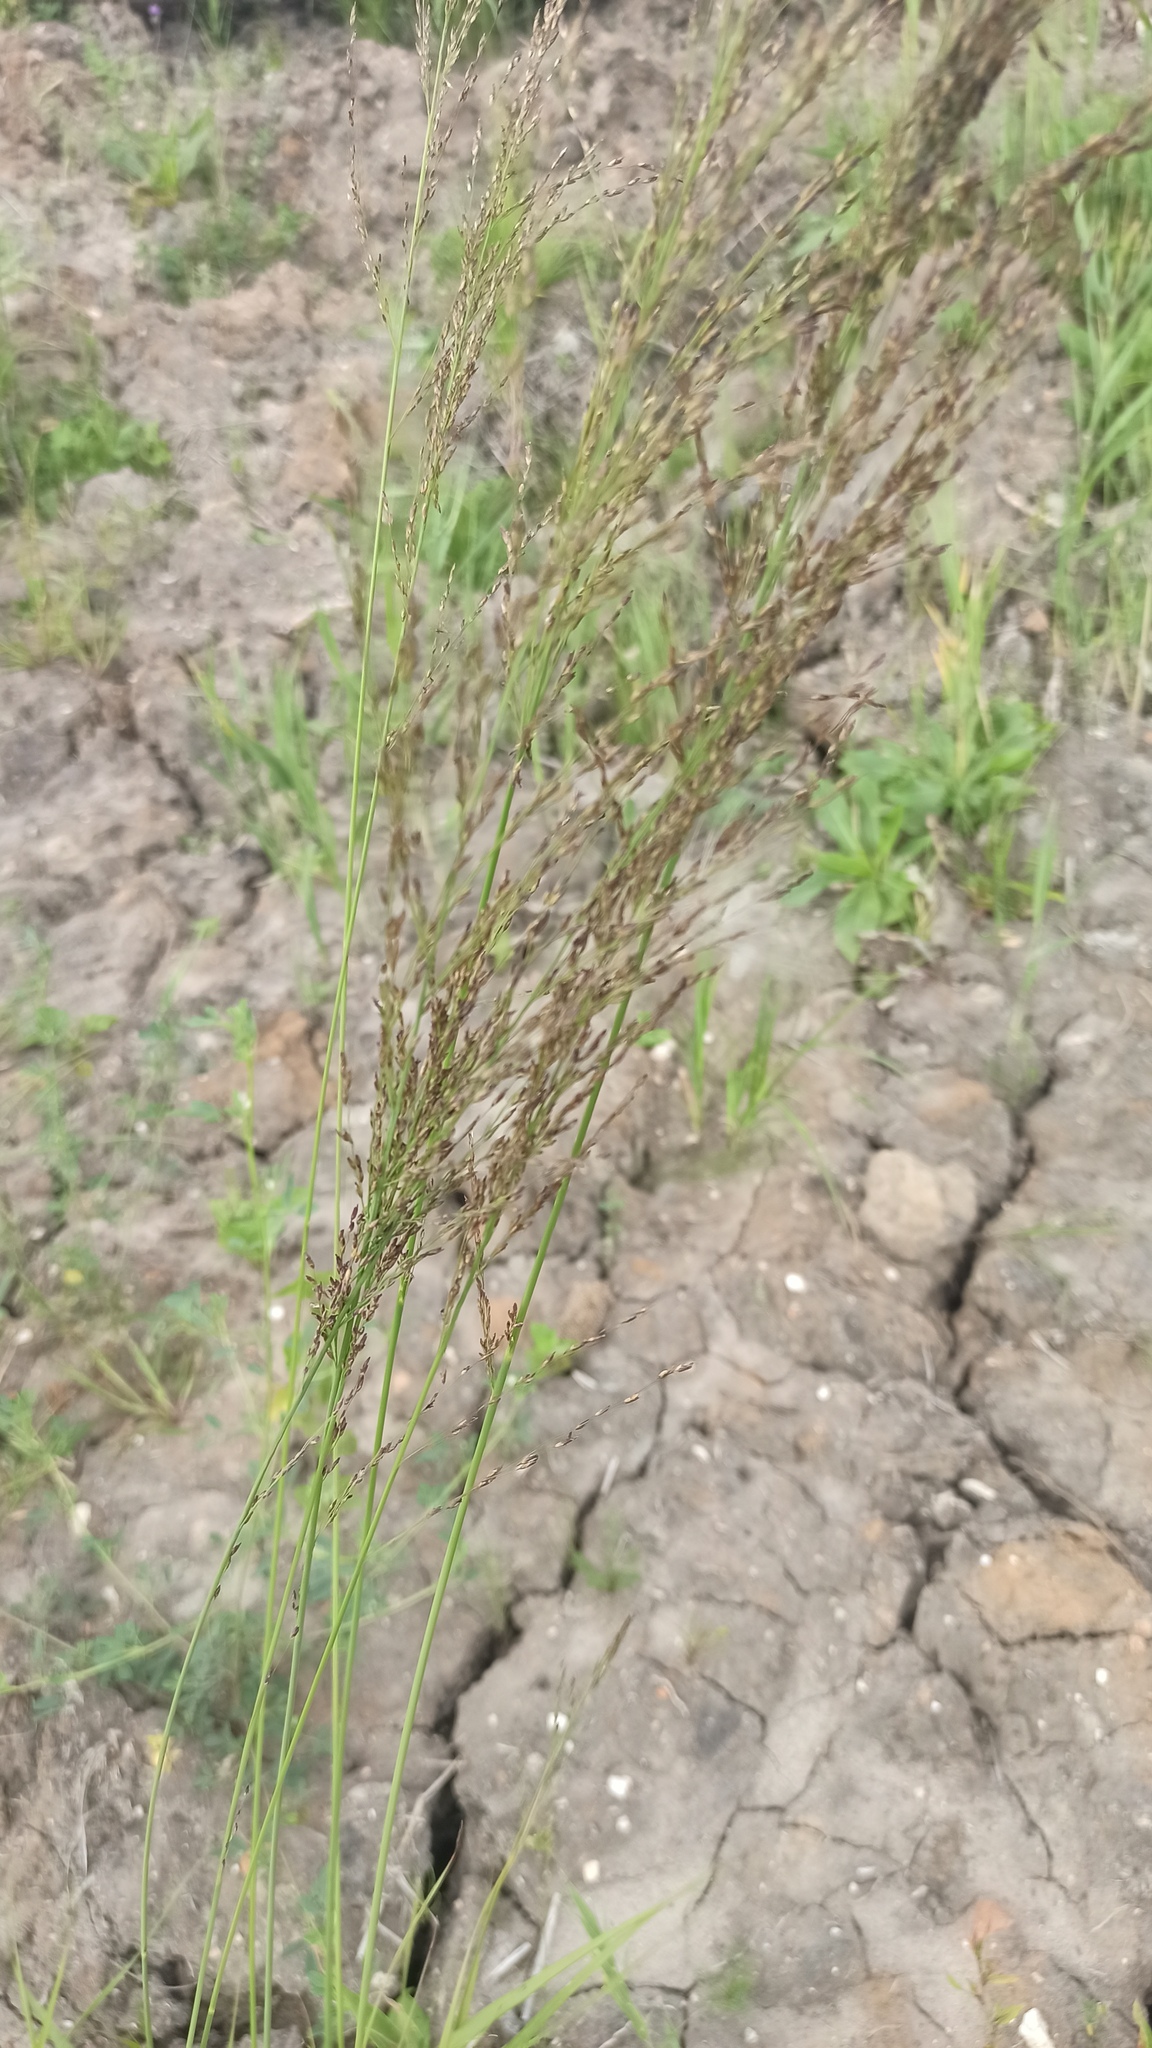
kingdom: Plantae
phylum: Tracheophyta
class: Liliopsida
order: Poales
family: Poaceae
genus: Molinia
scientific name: Molinia caerulea
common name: Purple moor-grass
